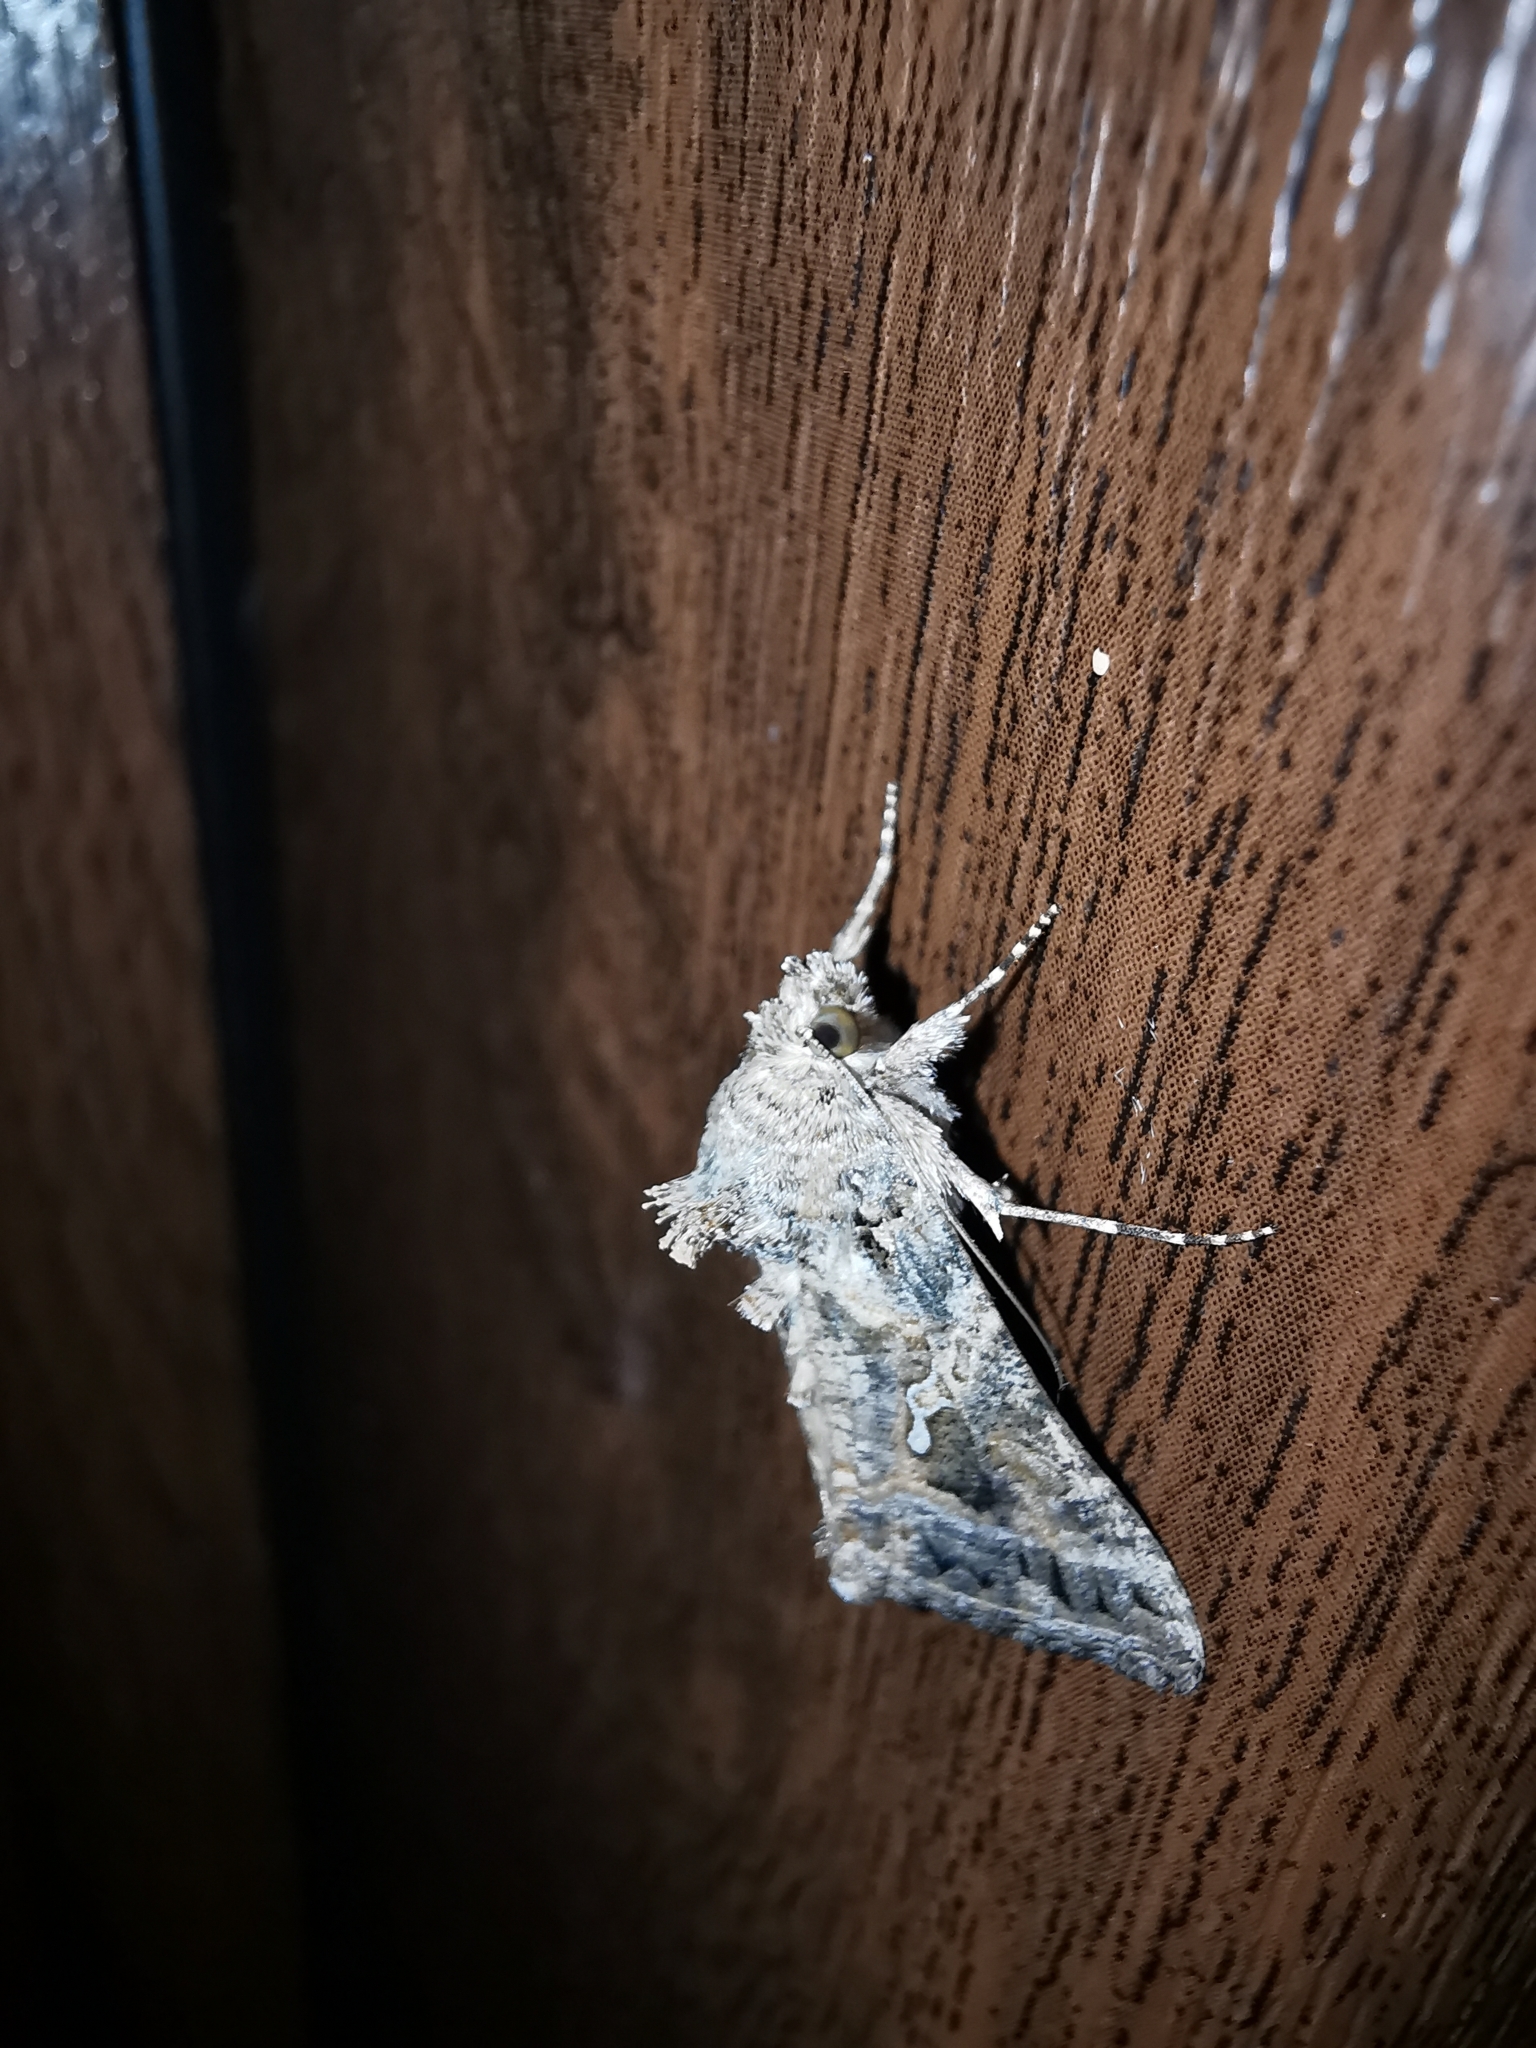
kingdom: Animalia
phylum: Arthropoda
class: Insecta
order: Lepidoptera
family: Noctuidae
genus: Trichoplusia
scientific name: Trichoplusia ni
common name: Ni moth
